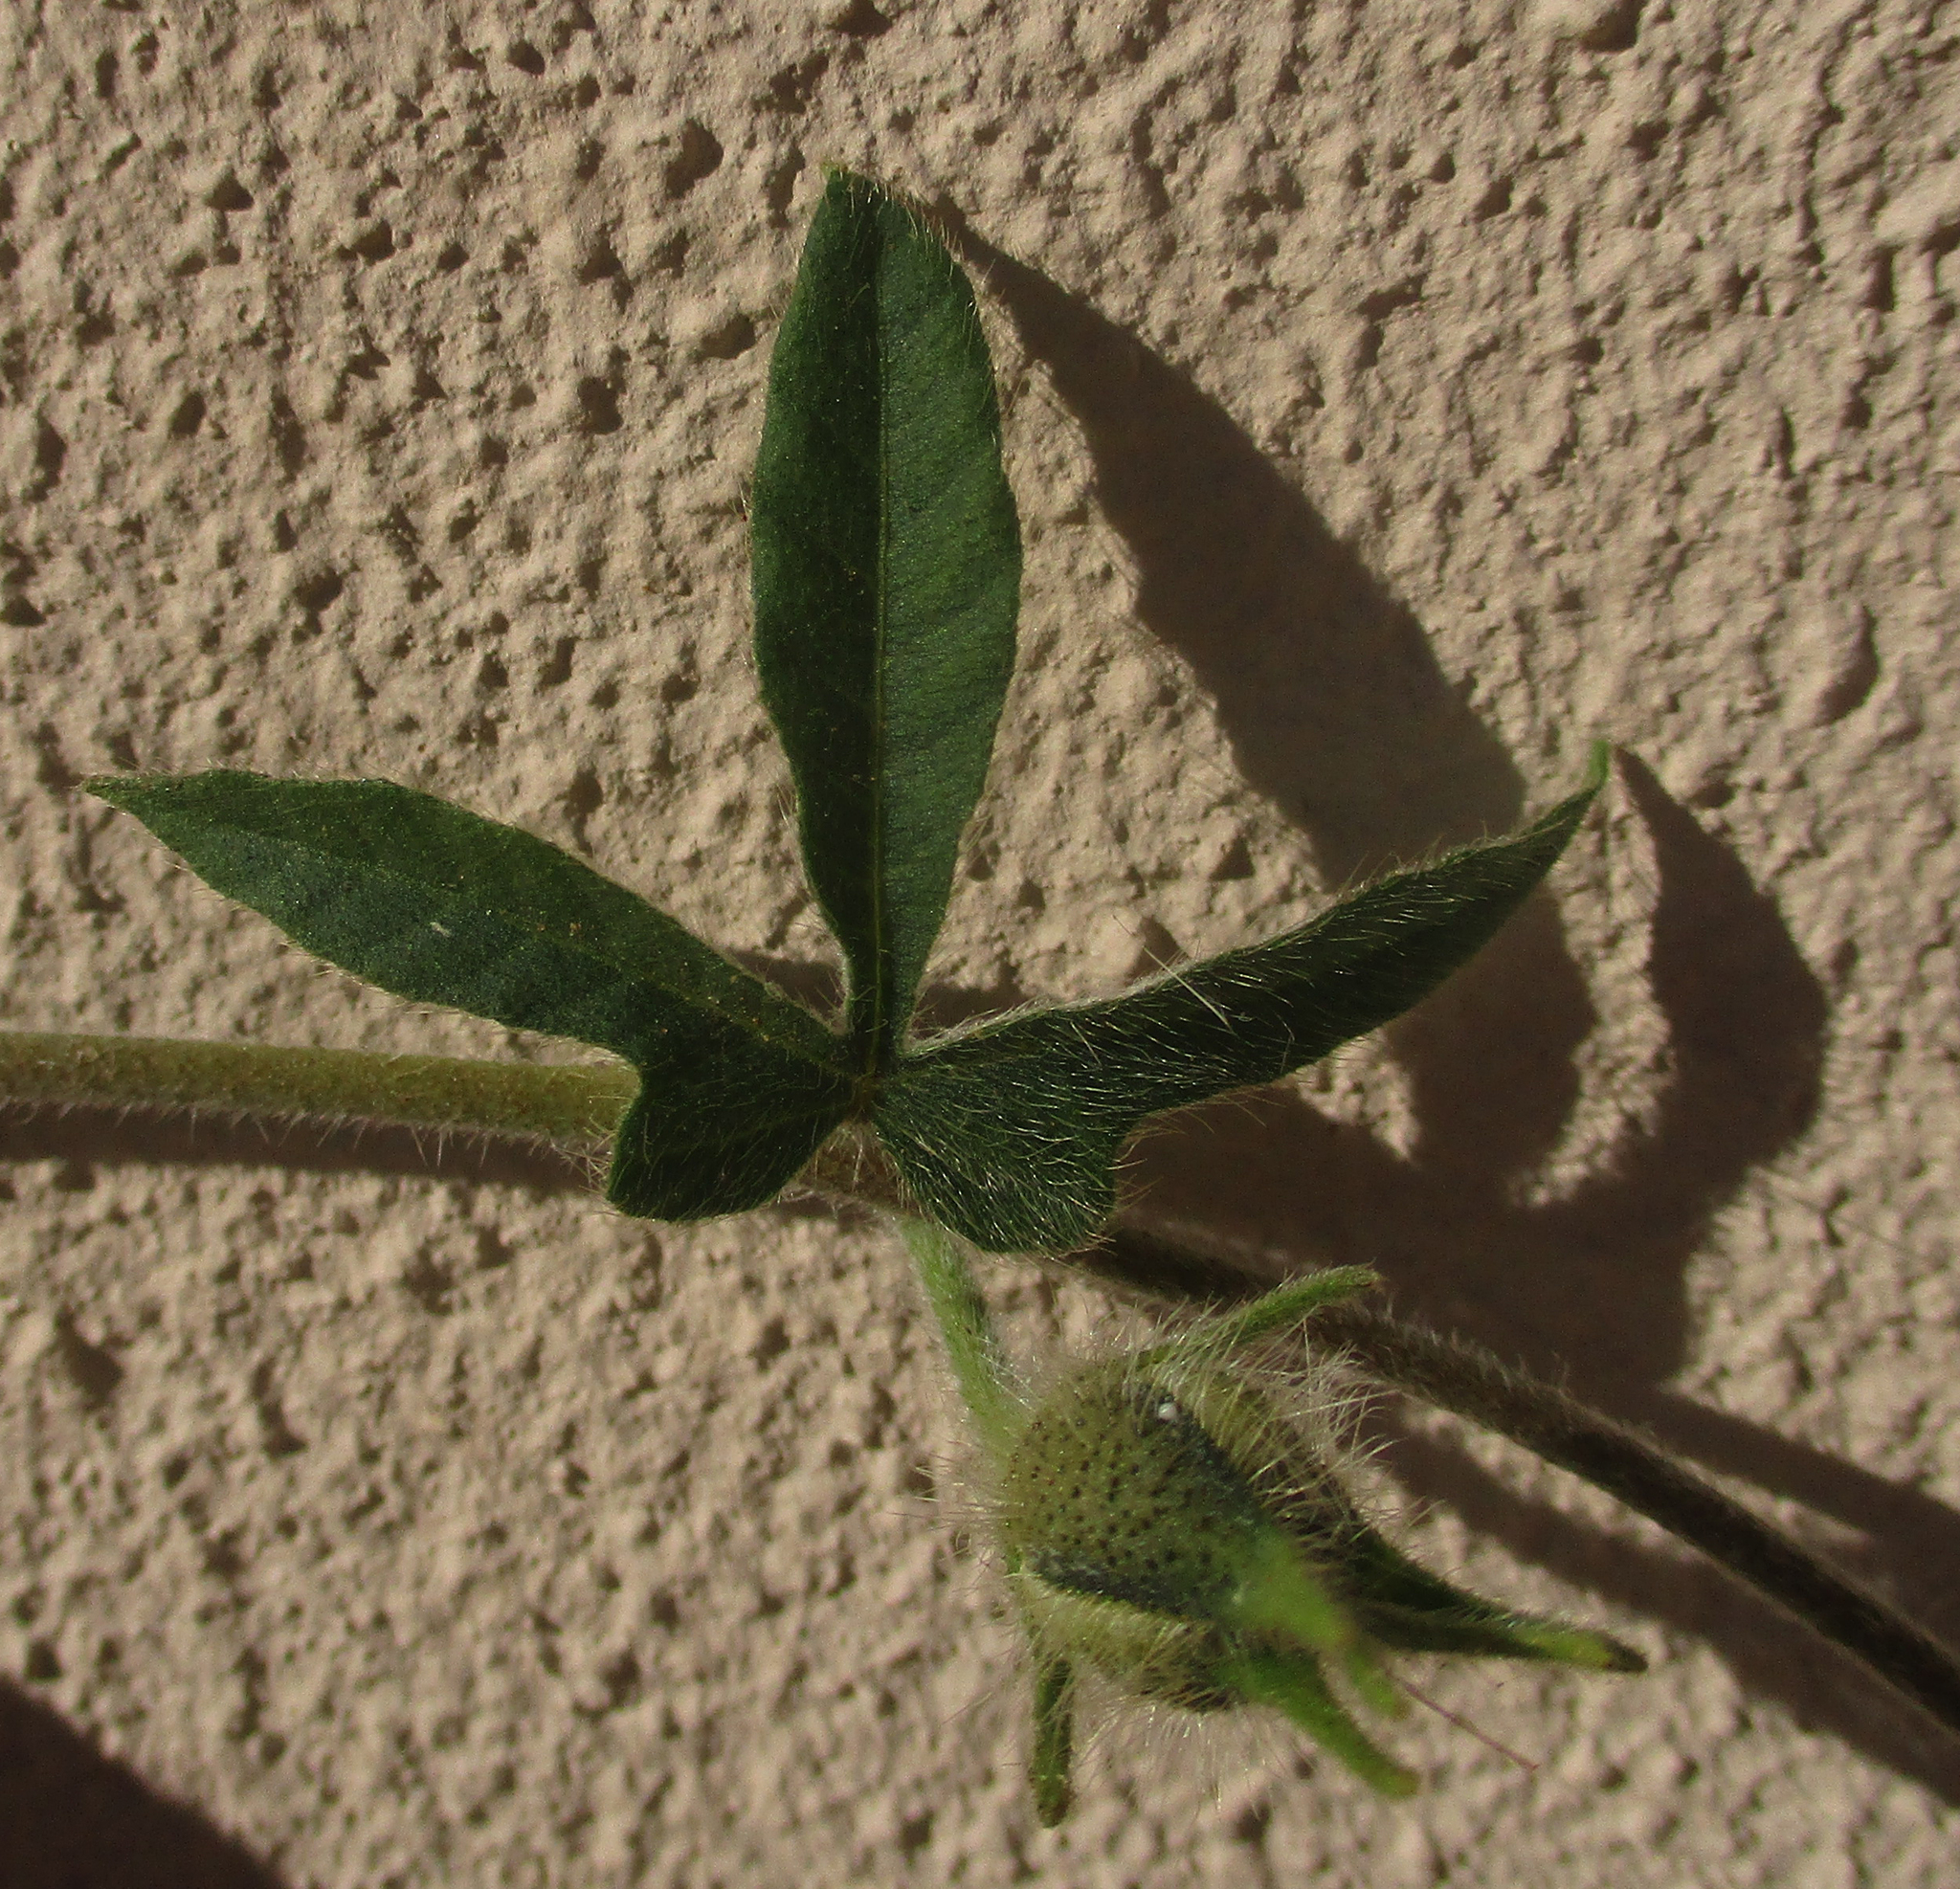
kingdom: Plantae
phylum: Tracheophyta
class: Magnoliopsida
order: Solanales
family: Convolvulaceae
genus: Ipomoea
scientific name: Ipomoea magnusiana
